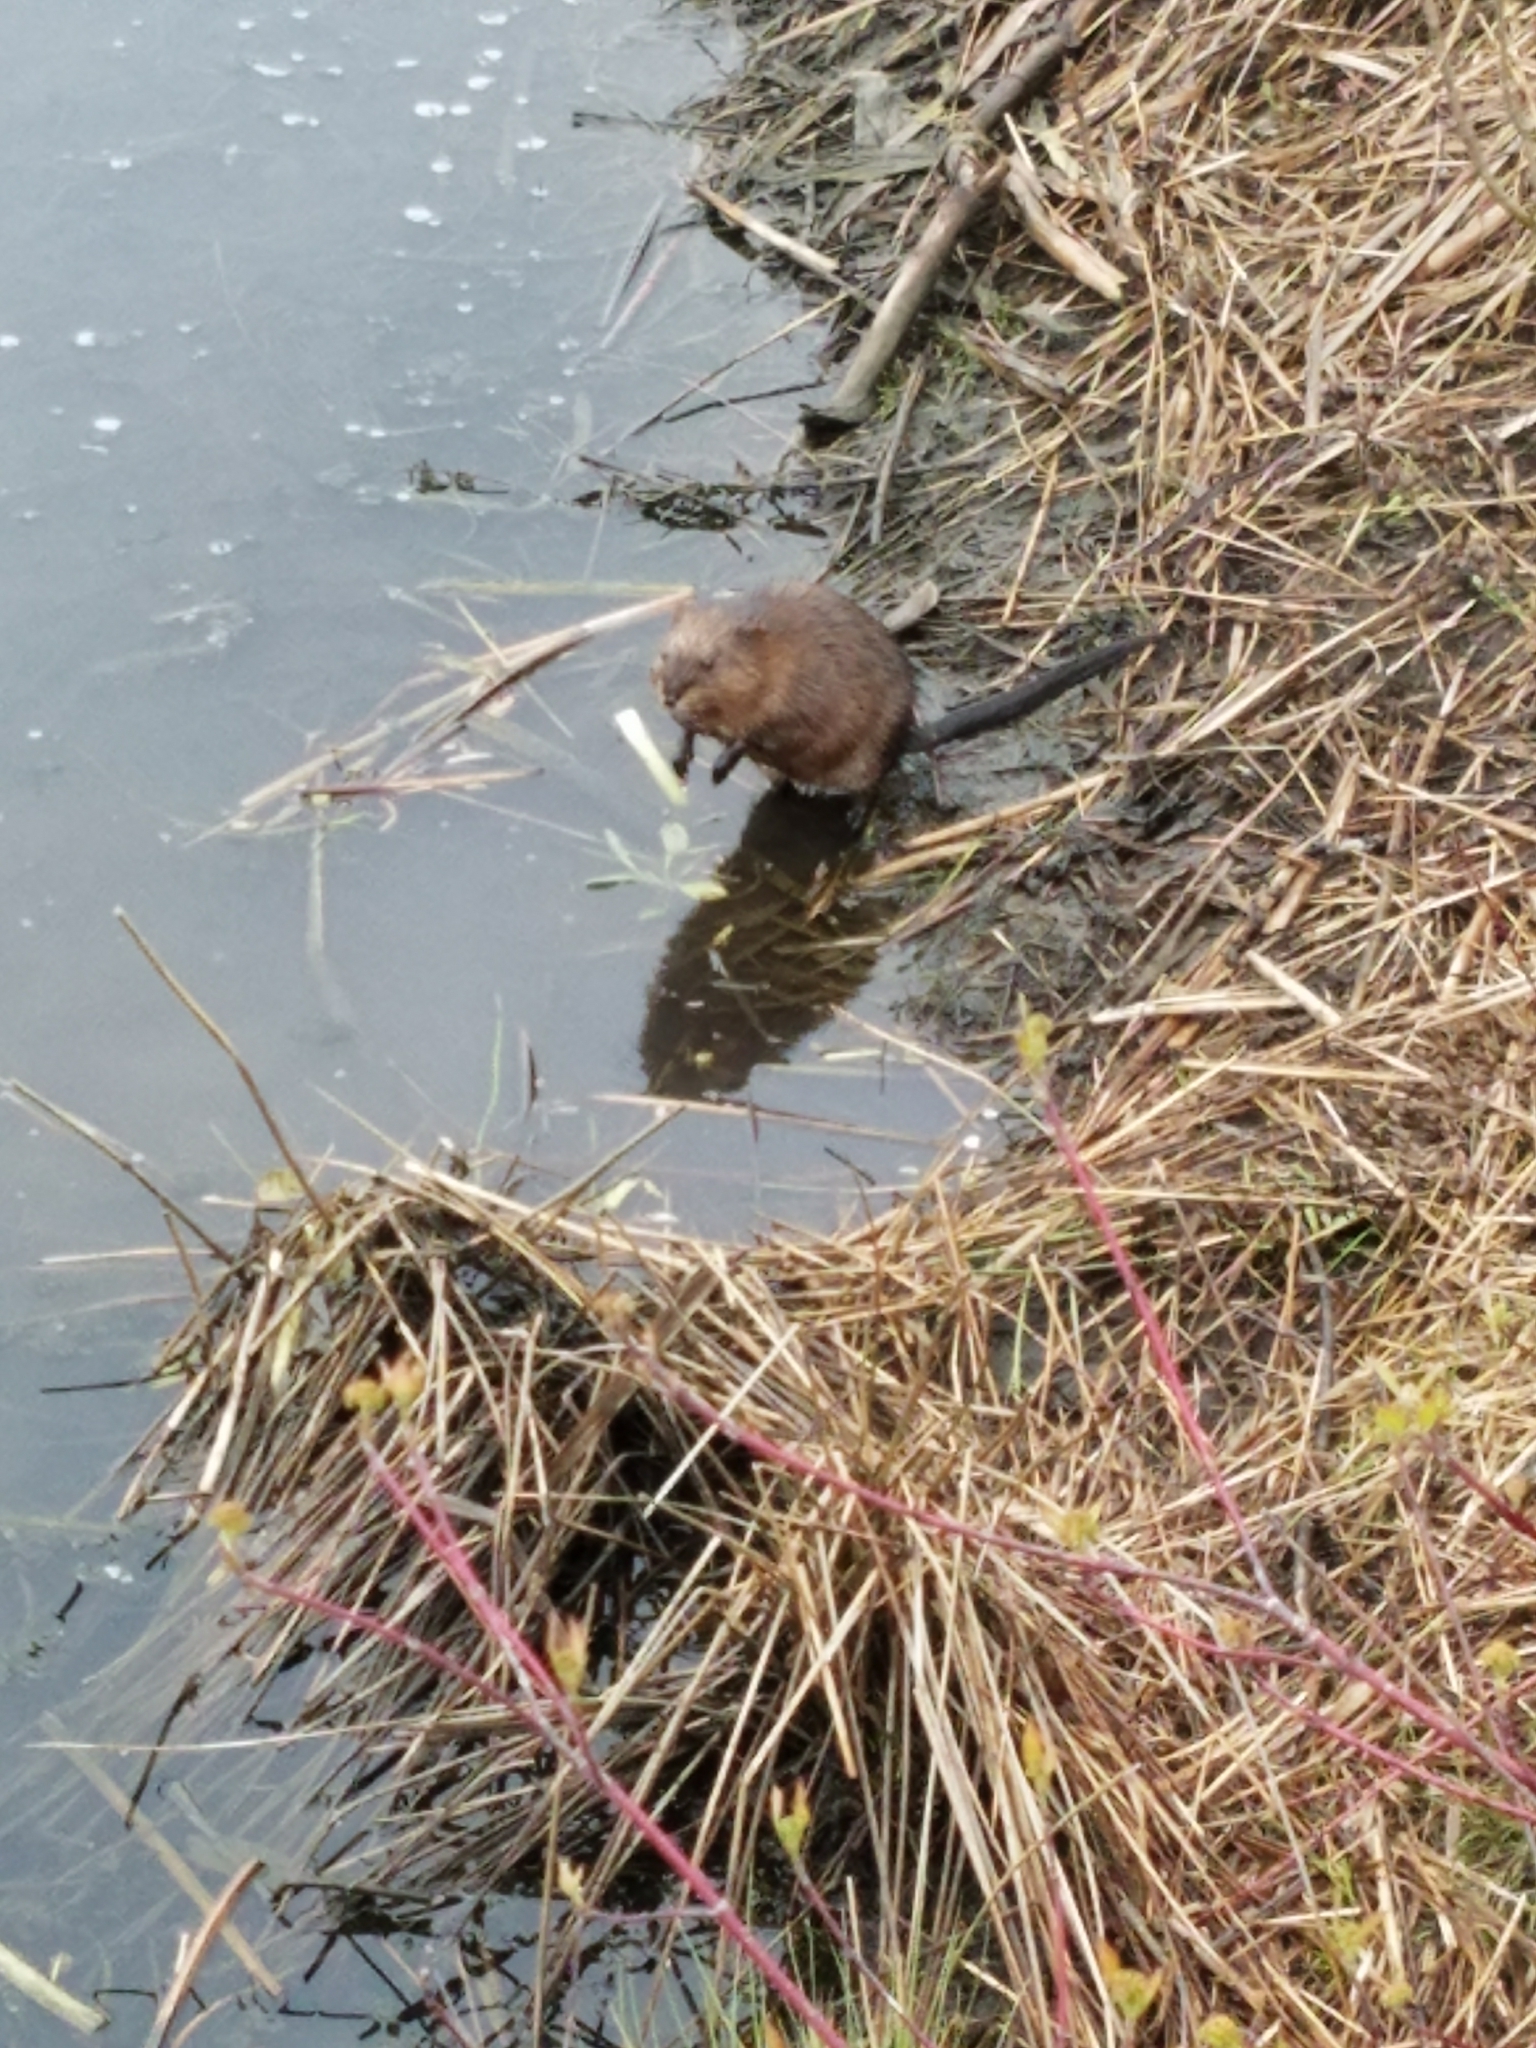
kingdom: Animalia
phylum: Chordata
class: Mammalia
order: Rodentia
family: Cricetidae
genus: Ondatra
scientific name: Ondatra zibethicus
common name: Muskrat
